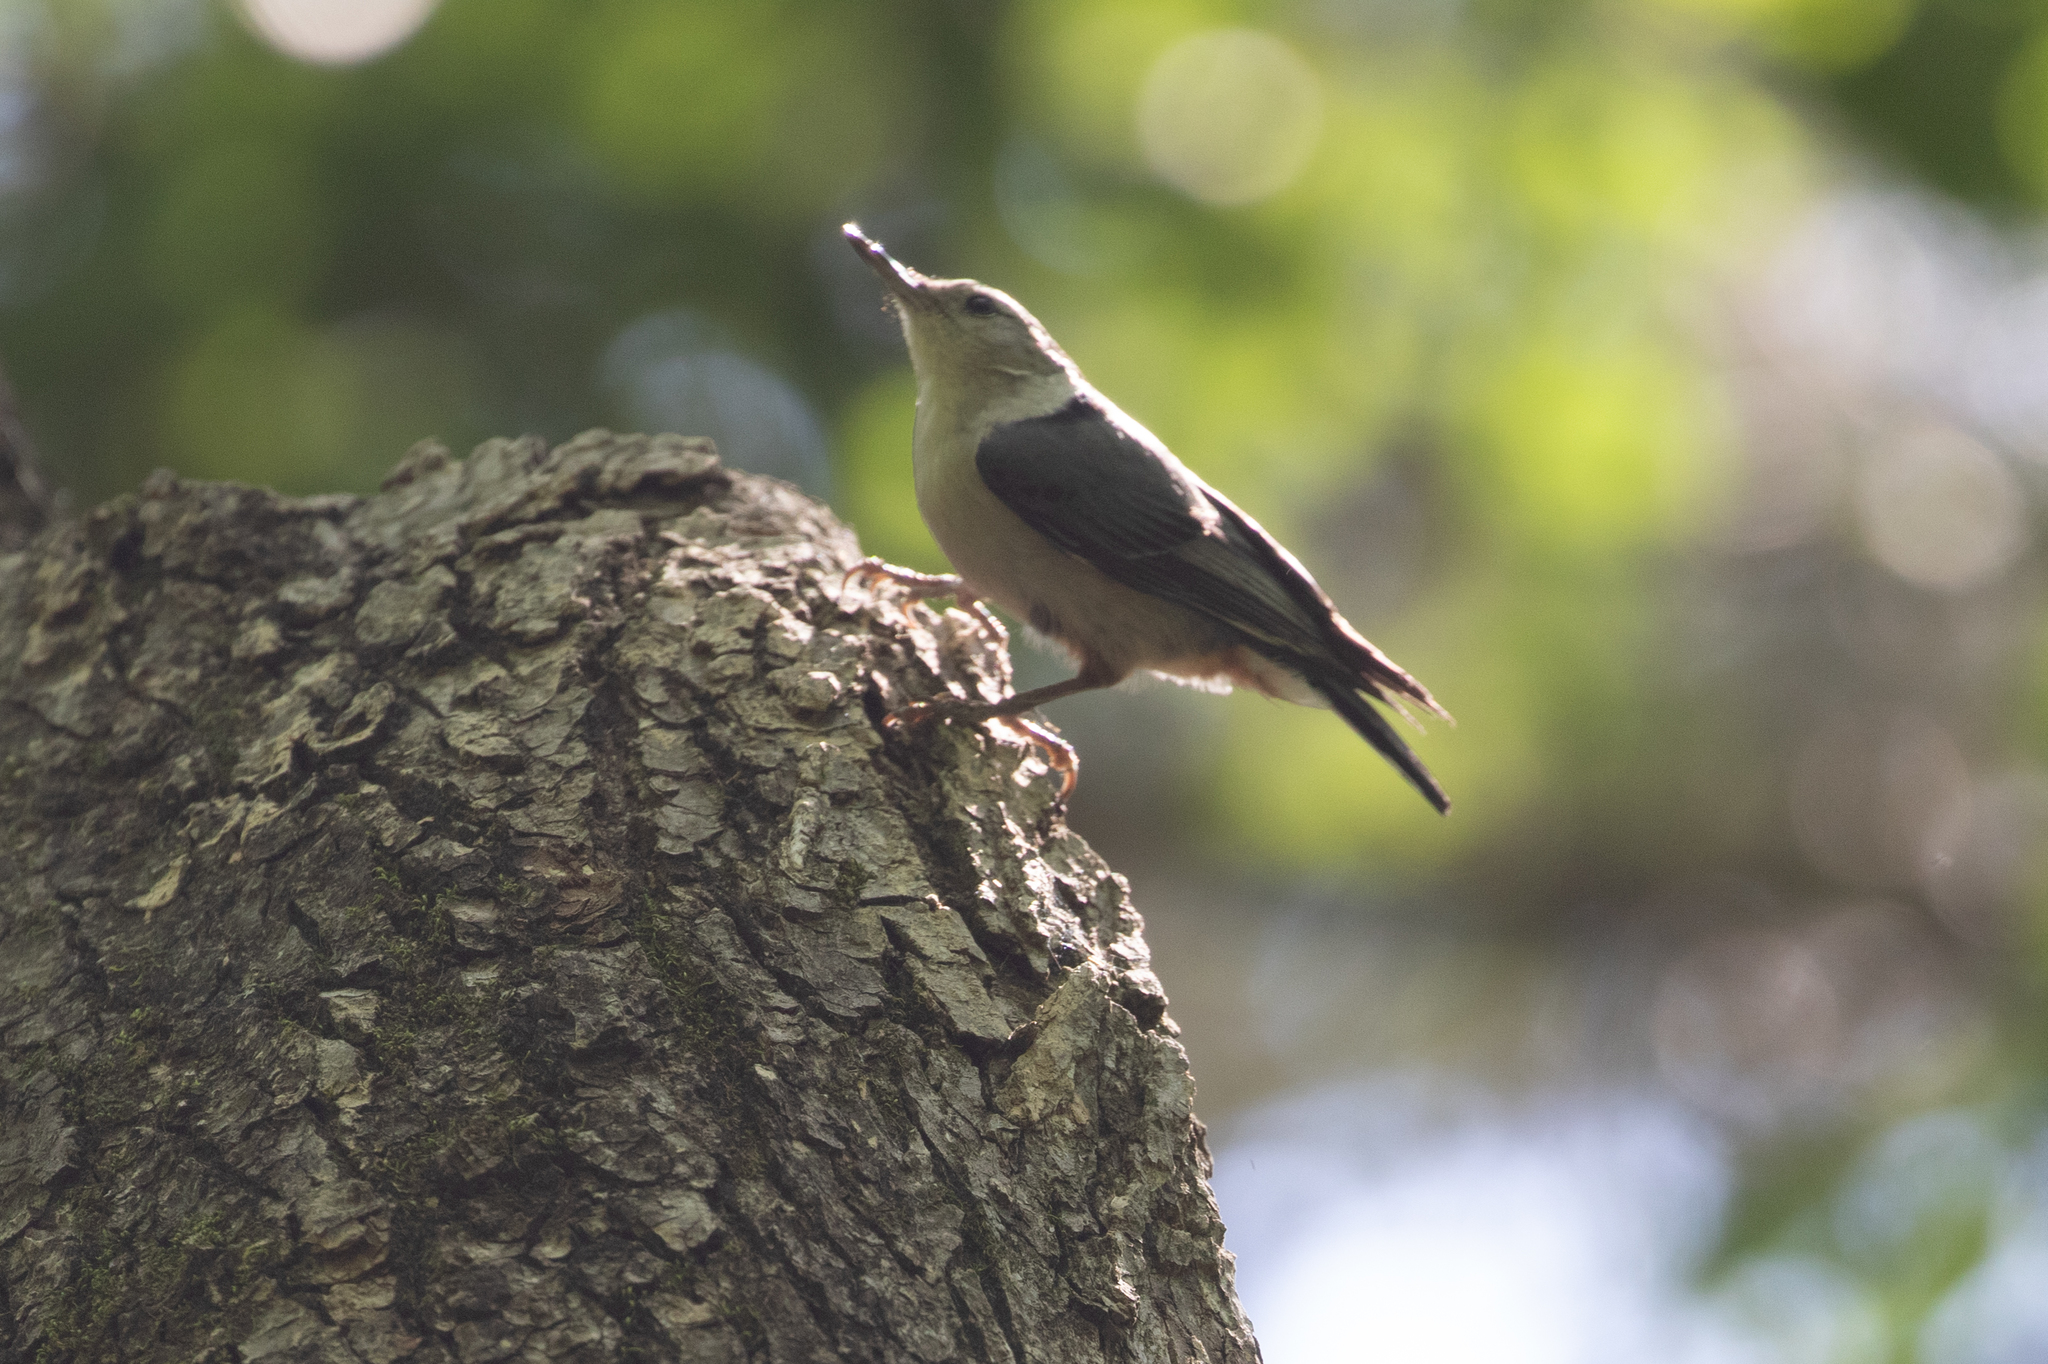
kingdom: Animalia
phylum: Chordata
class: Aves
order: Passeriformes
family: Sittidae
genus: Sitta
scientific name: Sitta carolinensis
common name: White-breasted nuthatch
